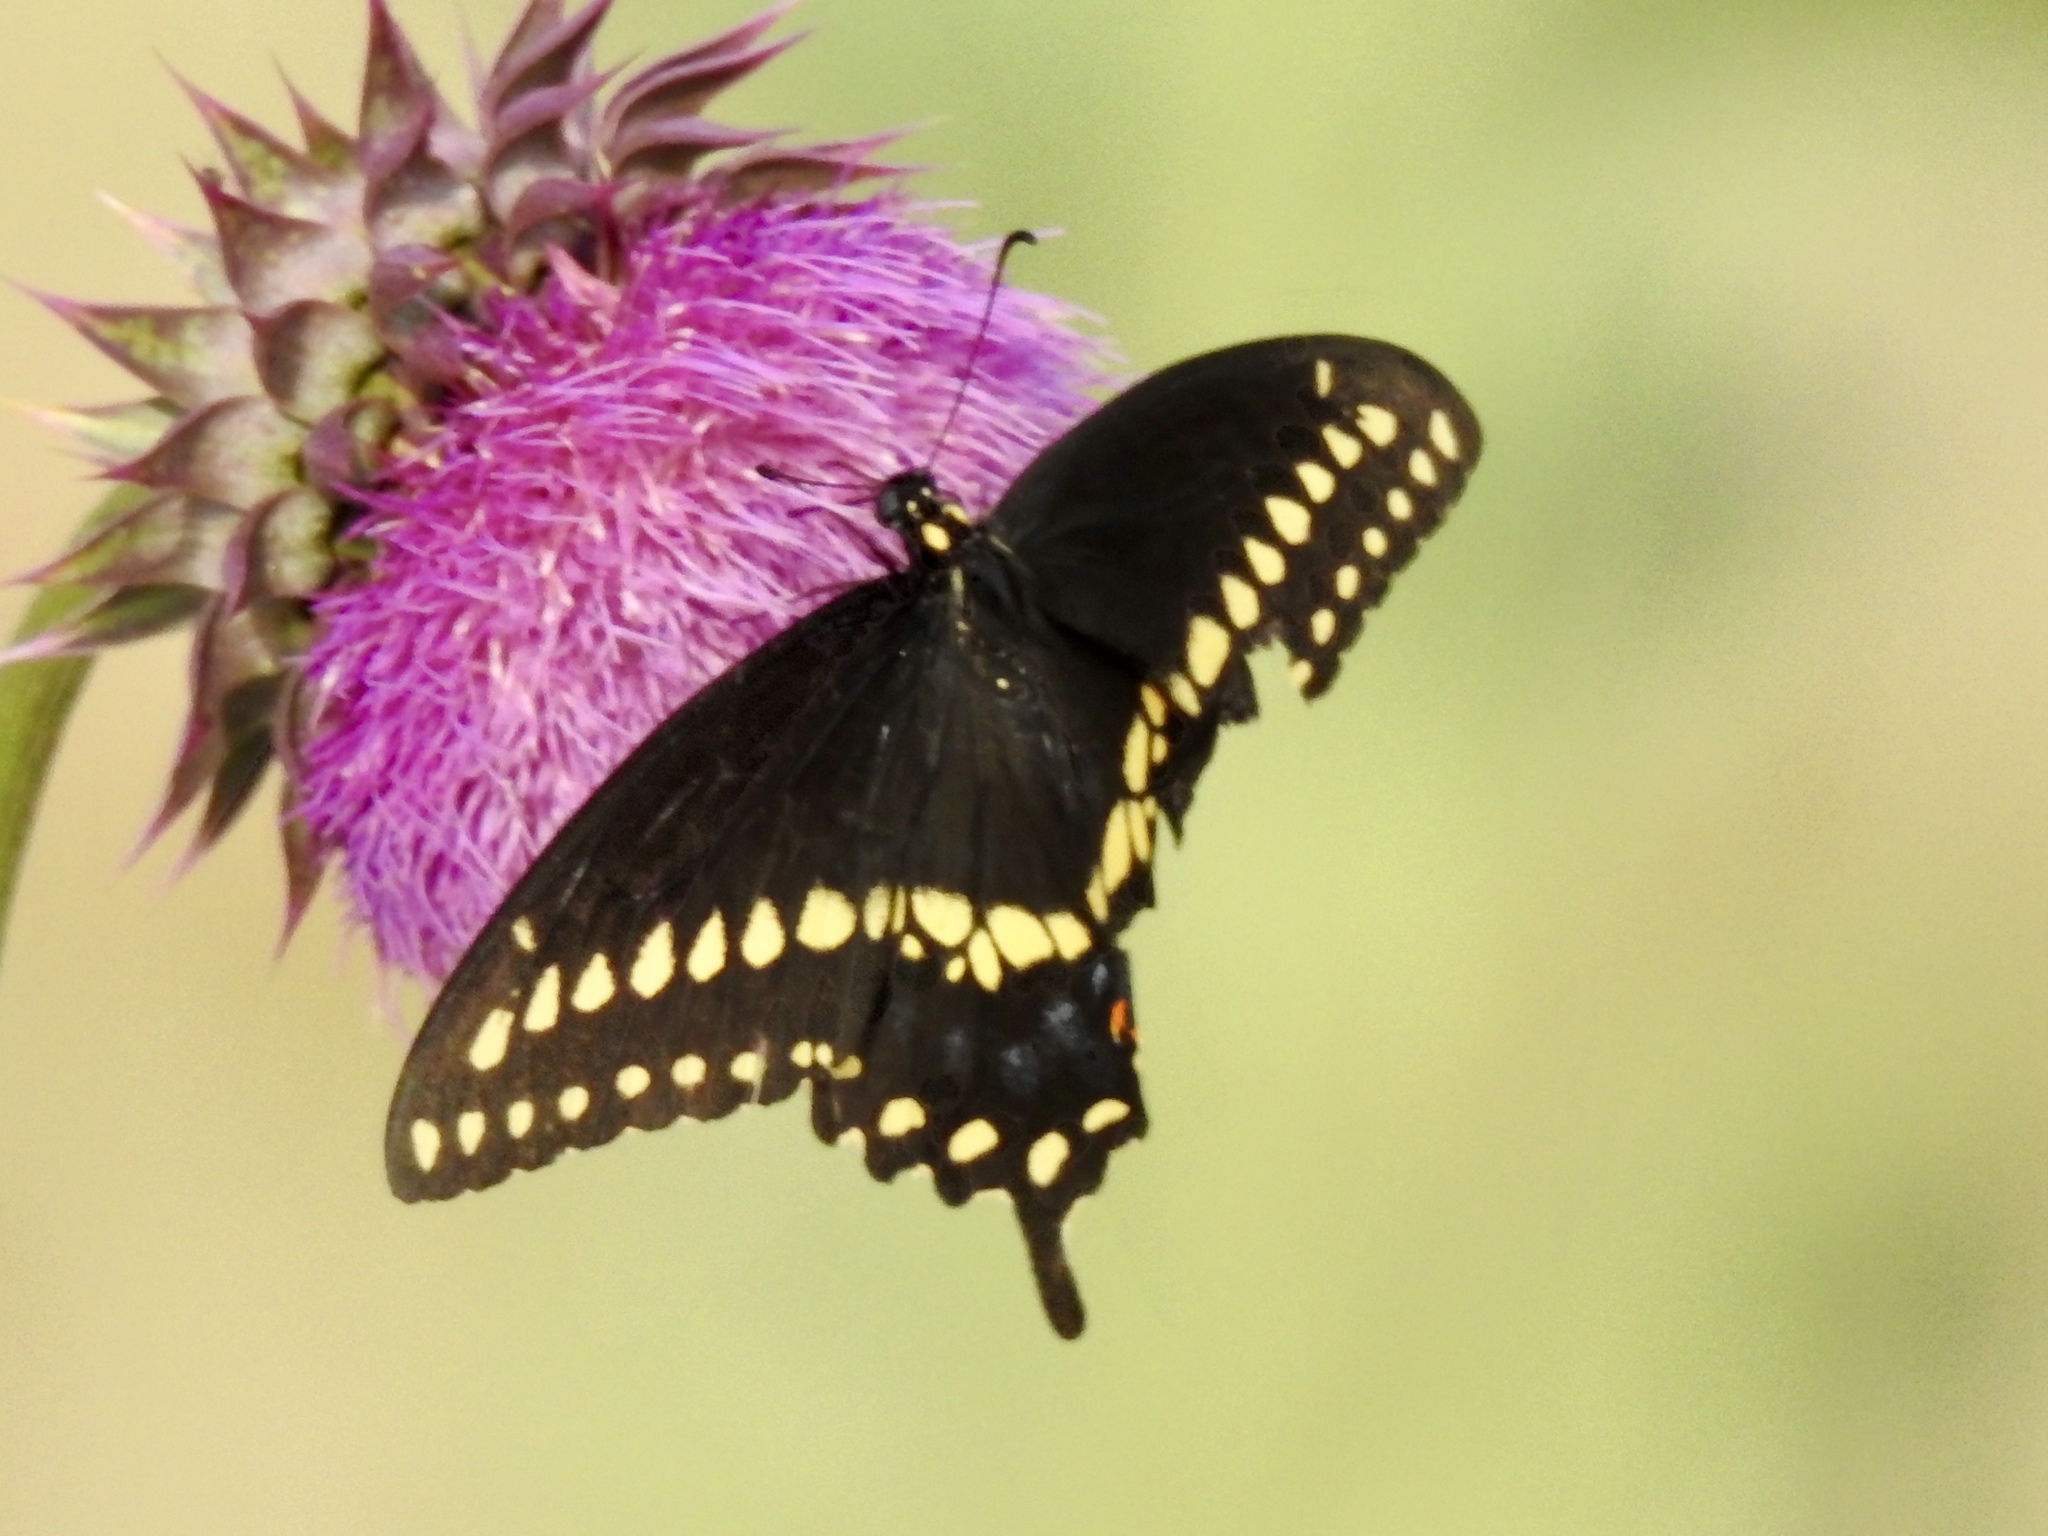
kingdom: Animalia
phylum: Arthropoda
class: Insecta
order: Lepidoptera
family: Papilionidae
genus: Papilio
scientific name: Papilio polyxenes
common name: Black swallowtail
